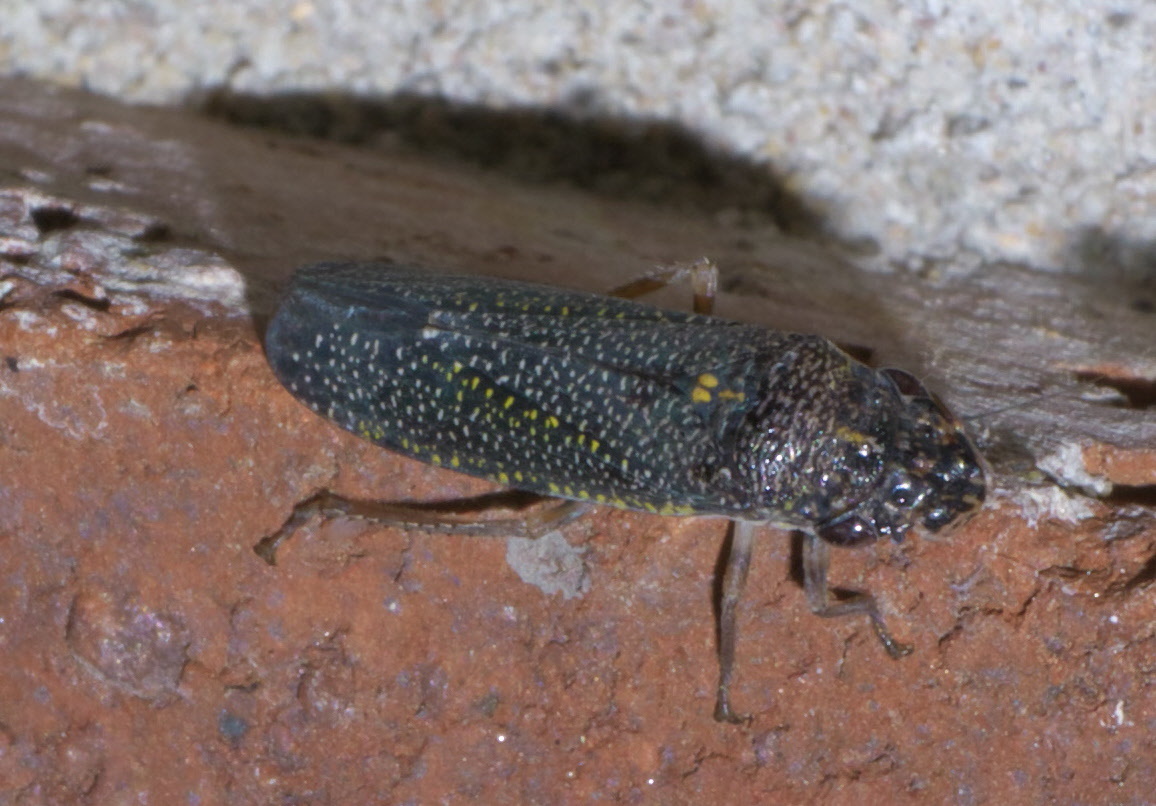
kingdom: Animalia
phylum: Arthropoda
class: Insecta
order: Hemiptera
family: Cicadellidae
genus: Paraulacizes
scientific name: Paraulacizes irrorata
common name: Speckled sharpshooter
